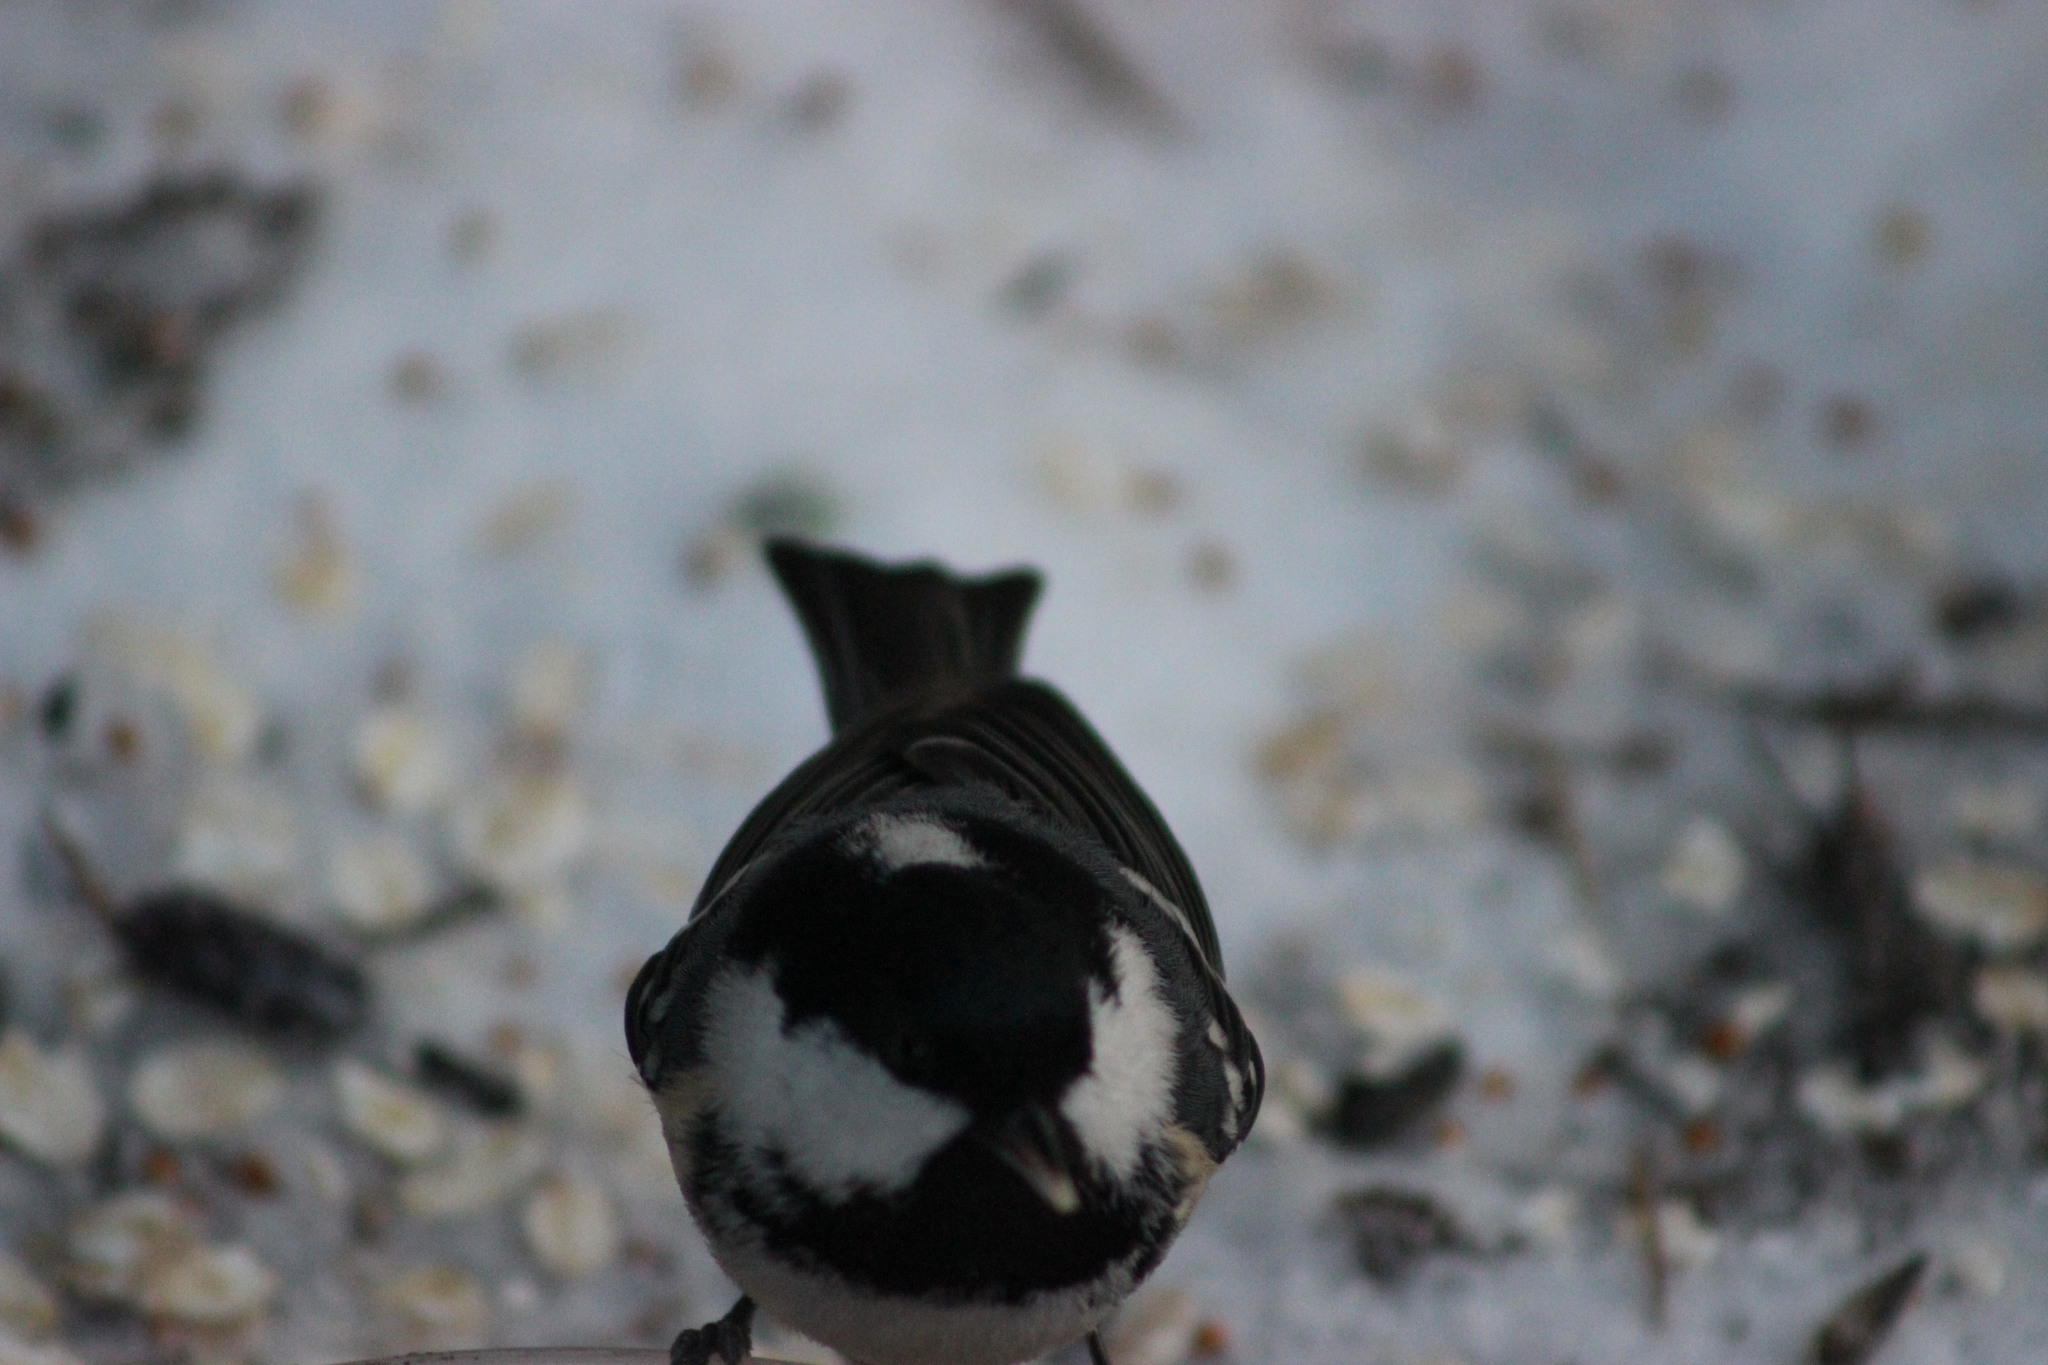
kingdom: Animalia
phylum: Chordata
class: Aves
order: Passeriformes
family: Paridae
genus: Periparus
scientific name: Periparus ater
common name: Coal tit
